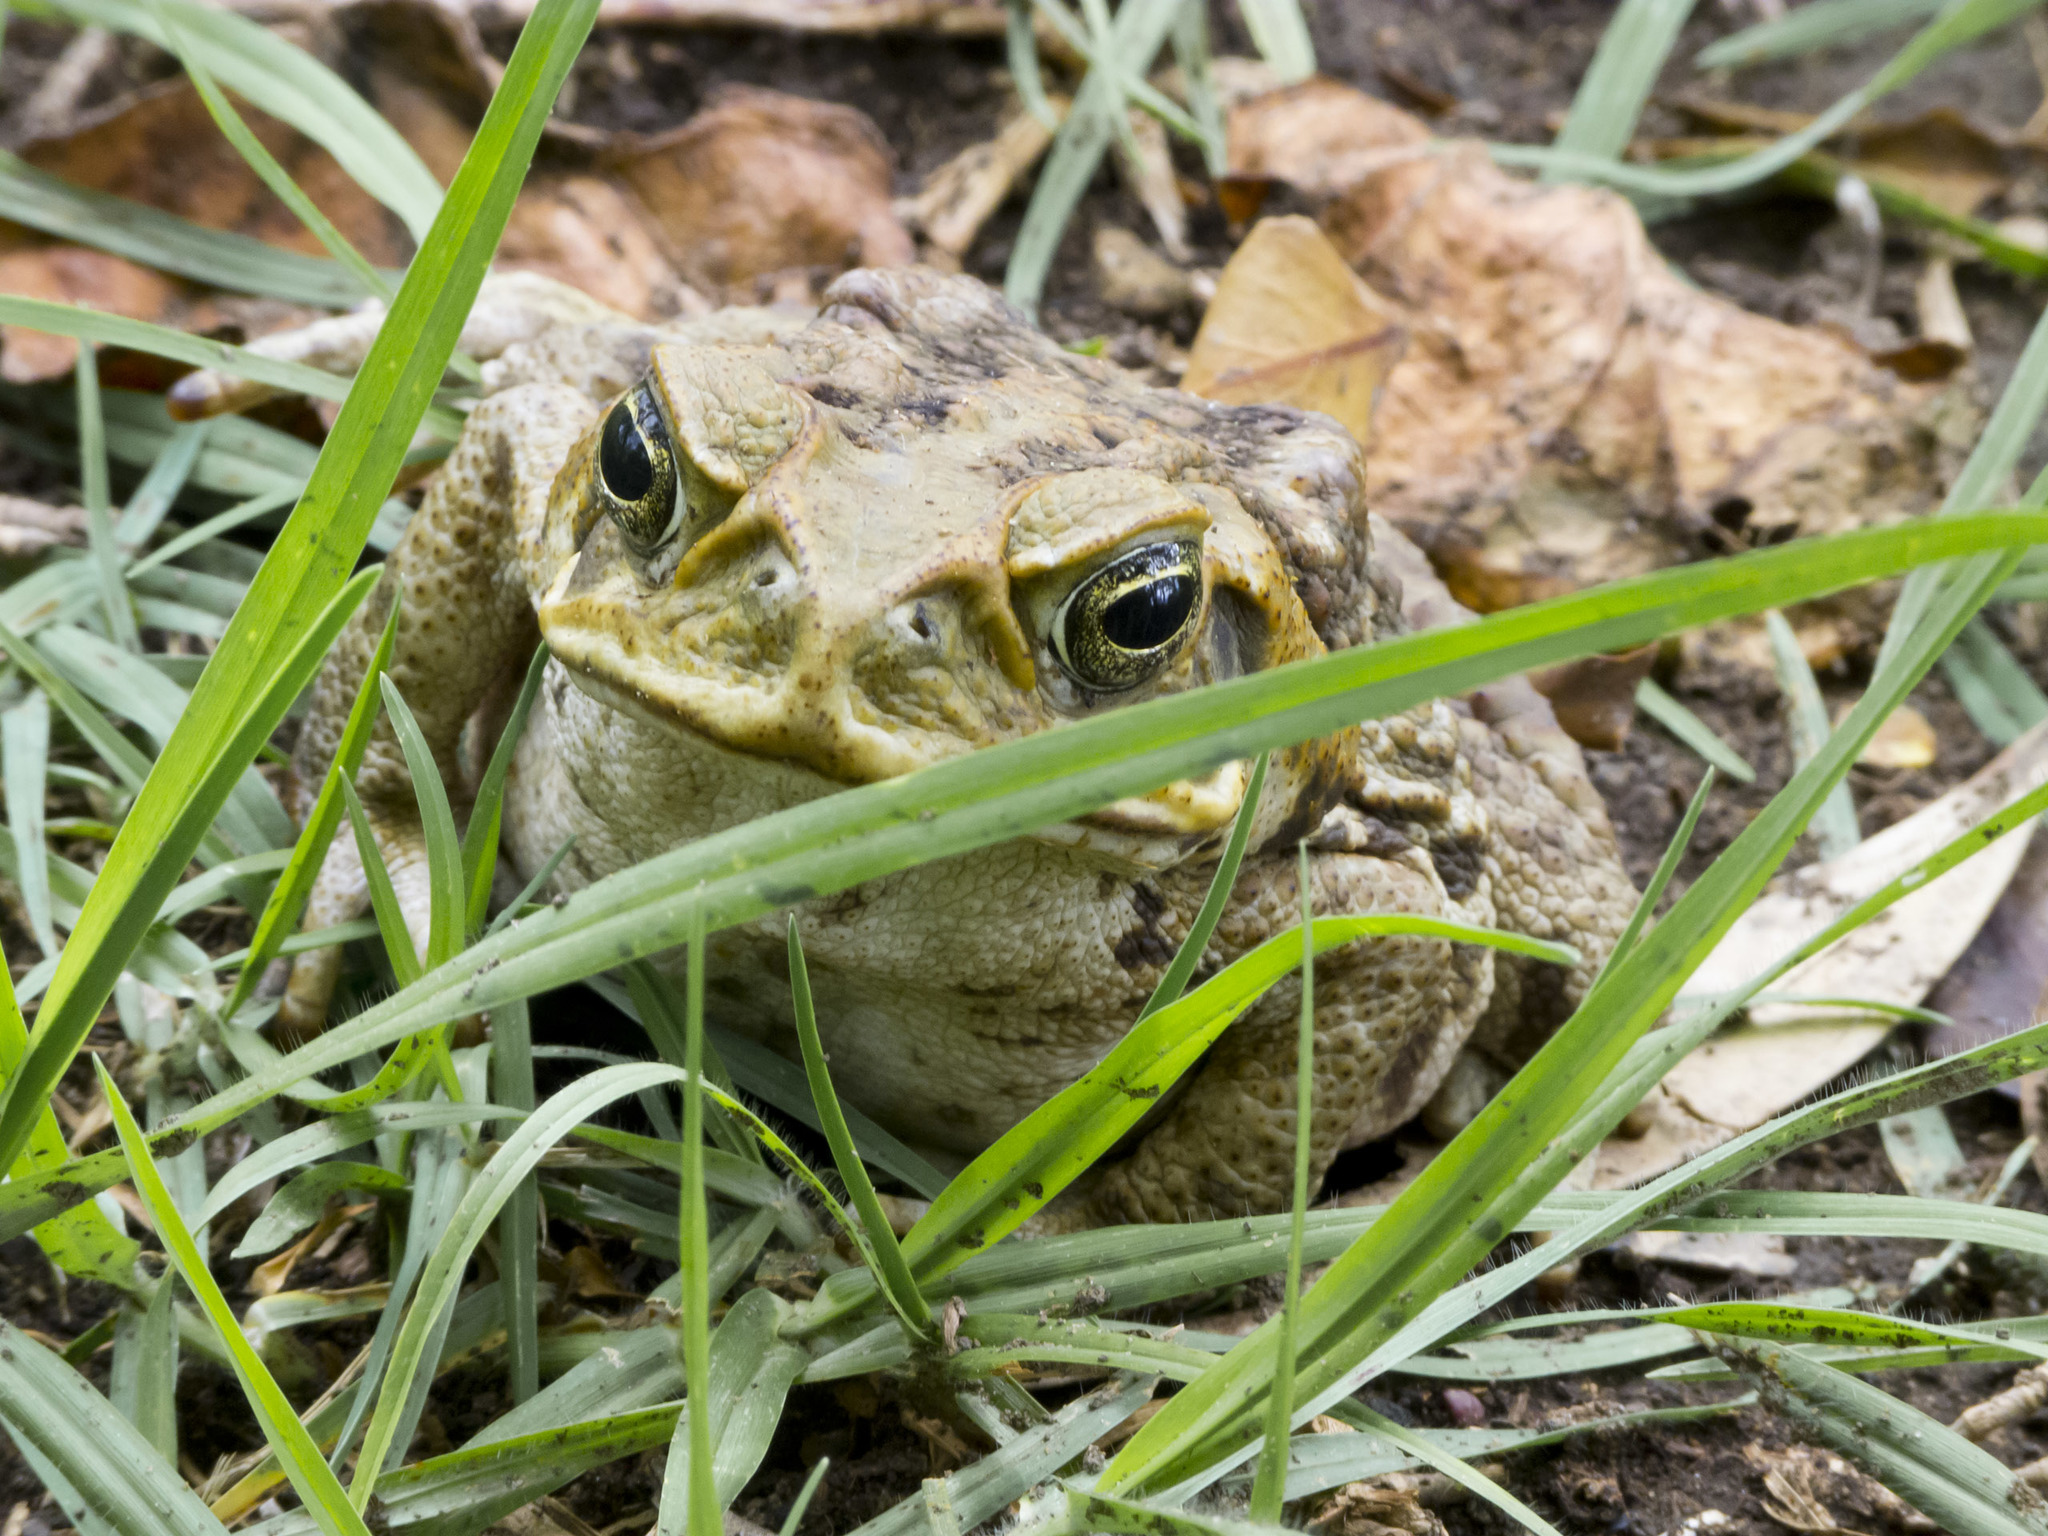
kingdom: Animalia
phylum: Chordata
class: Amphibia
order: Anura
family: Bufonidae
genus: Rhinella
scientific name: Rhinella horribilis
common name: Mesoamerican cane toad
